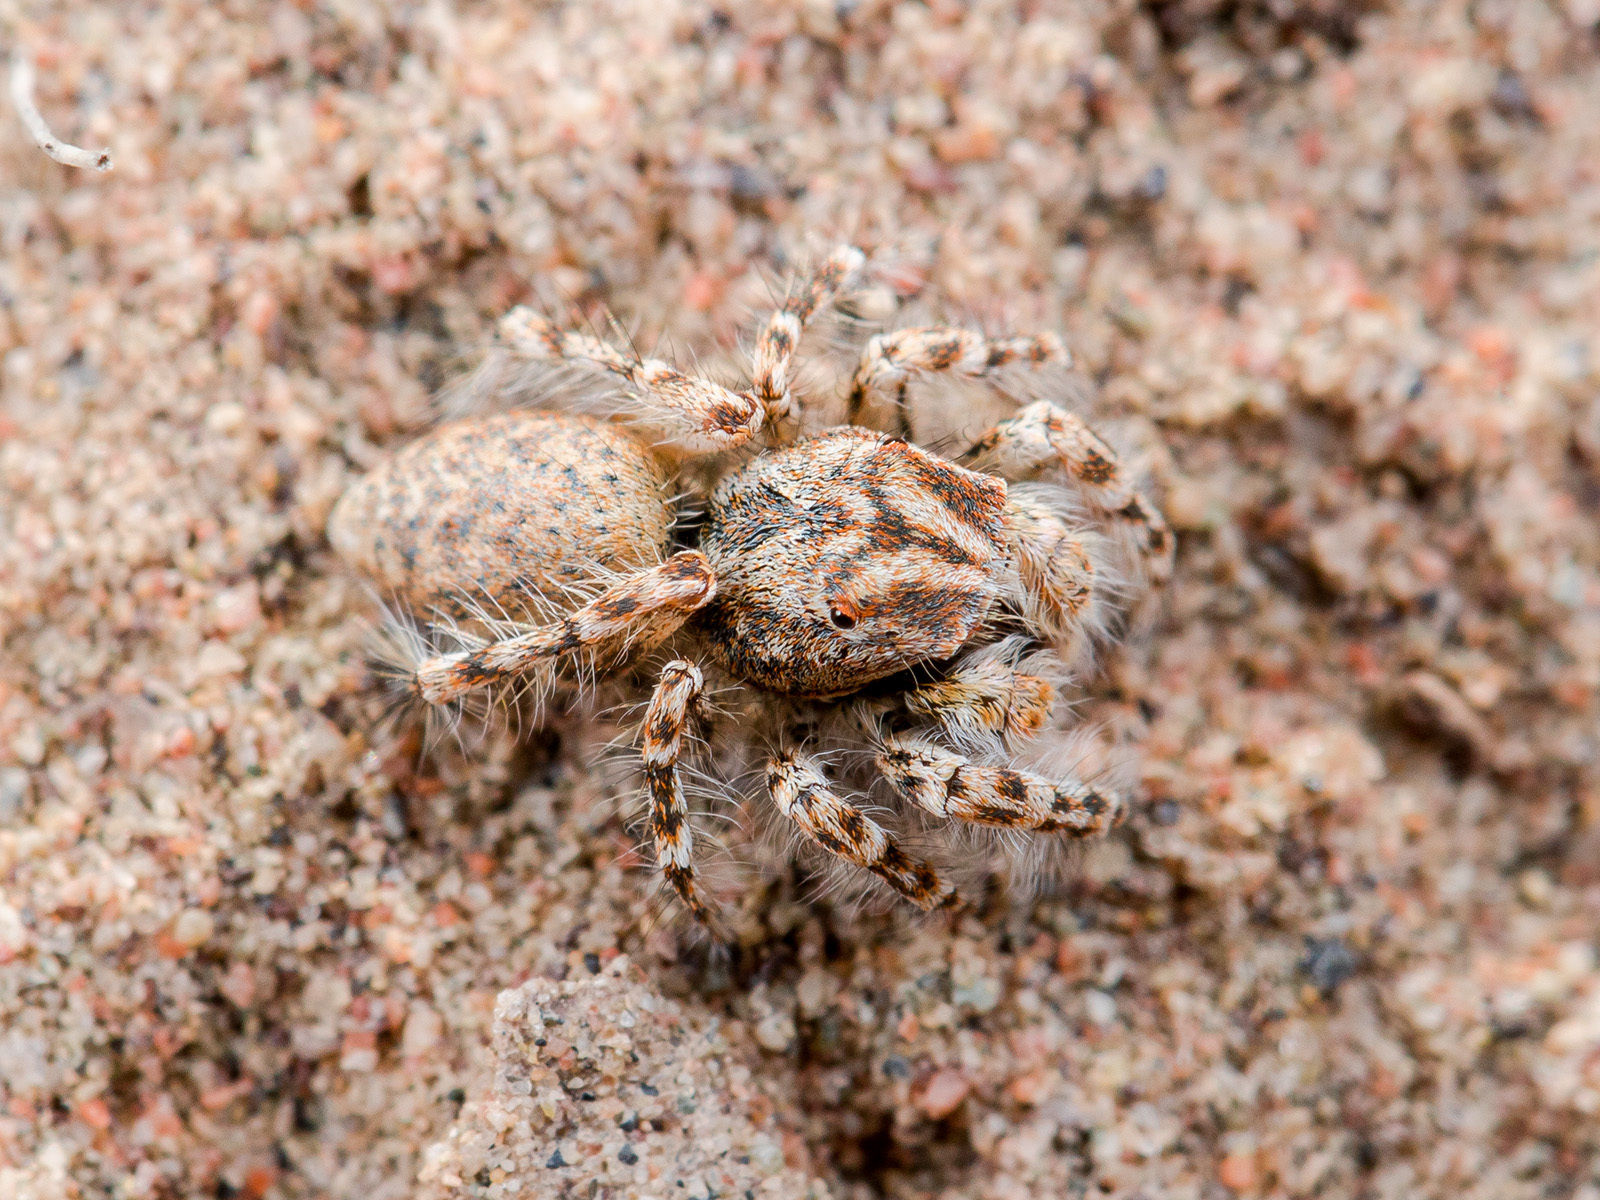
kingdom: Animalia
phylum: Arthropoda
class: Arachnida
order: Araneae
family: Salticidae
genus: Yllenus
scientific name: Yllenus uiguricus
